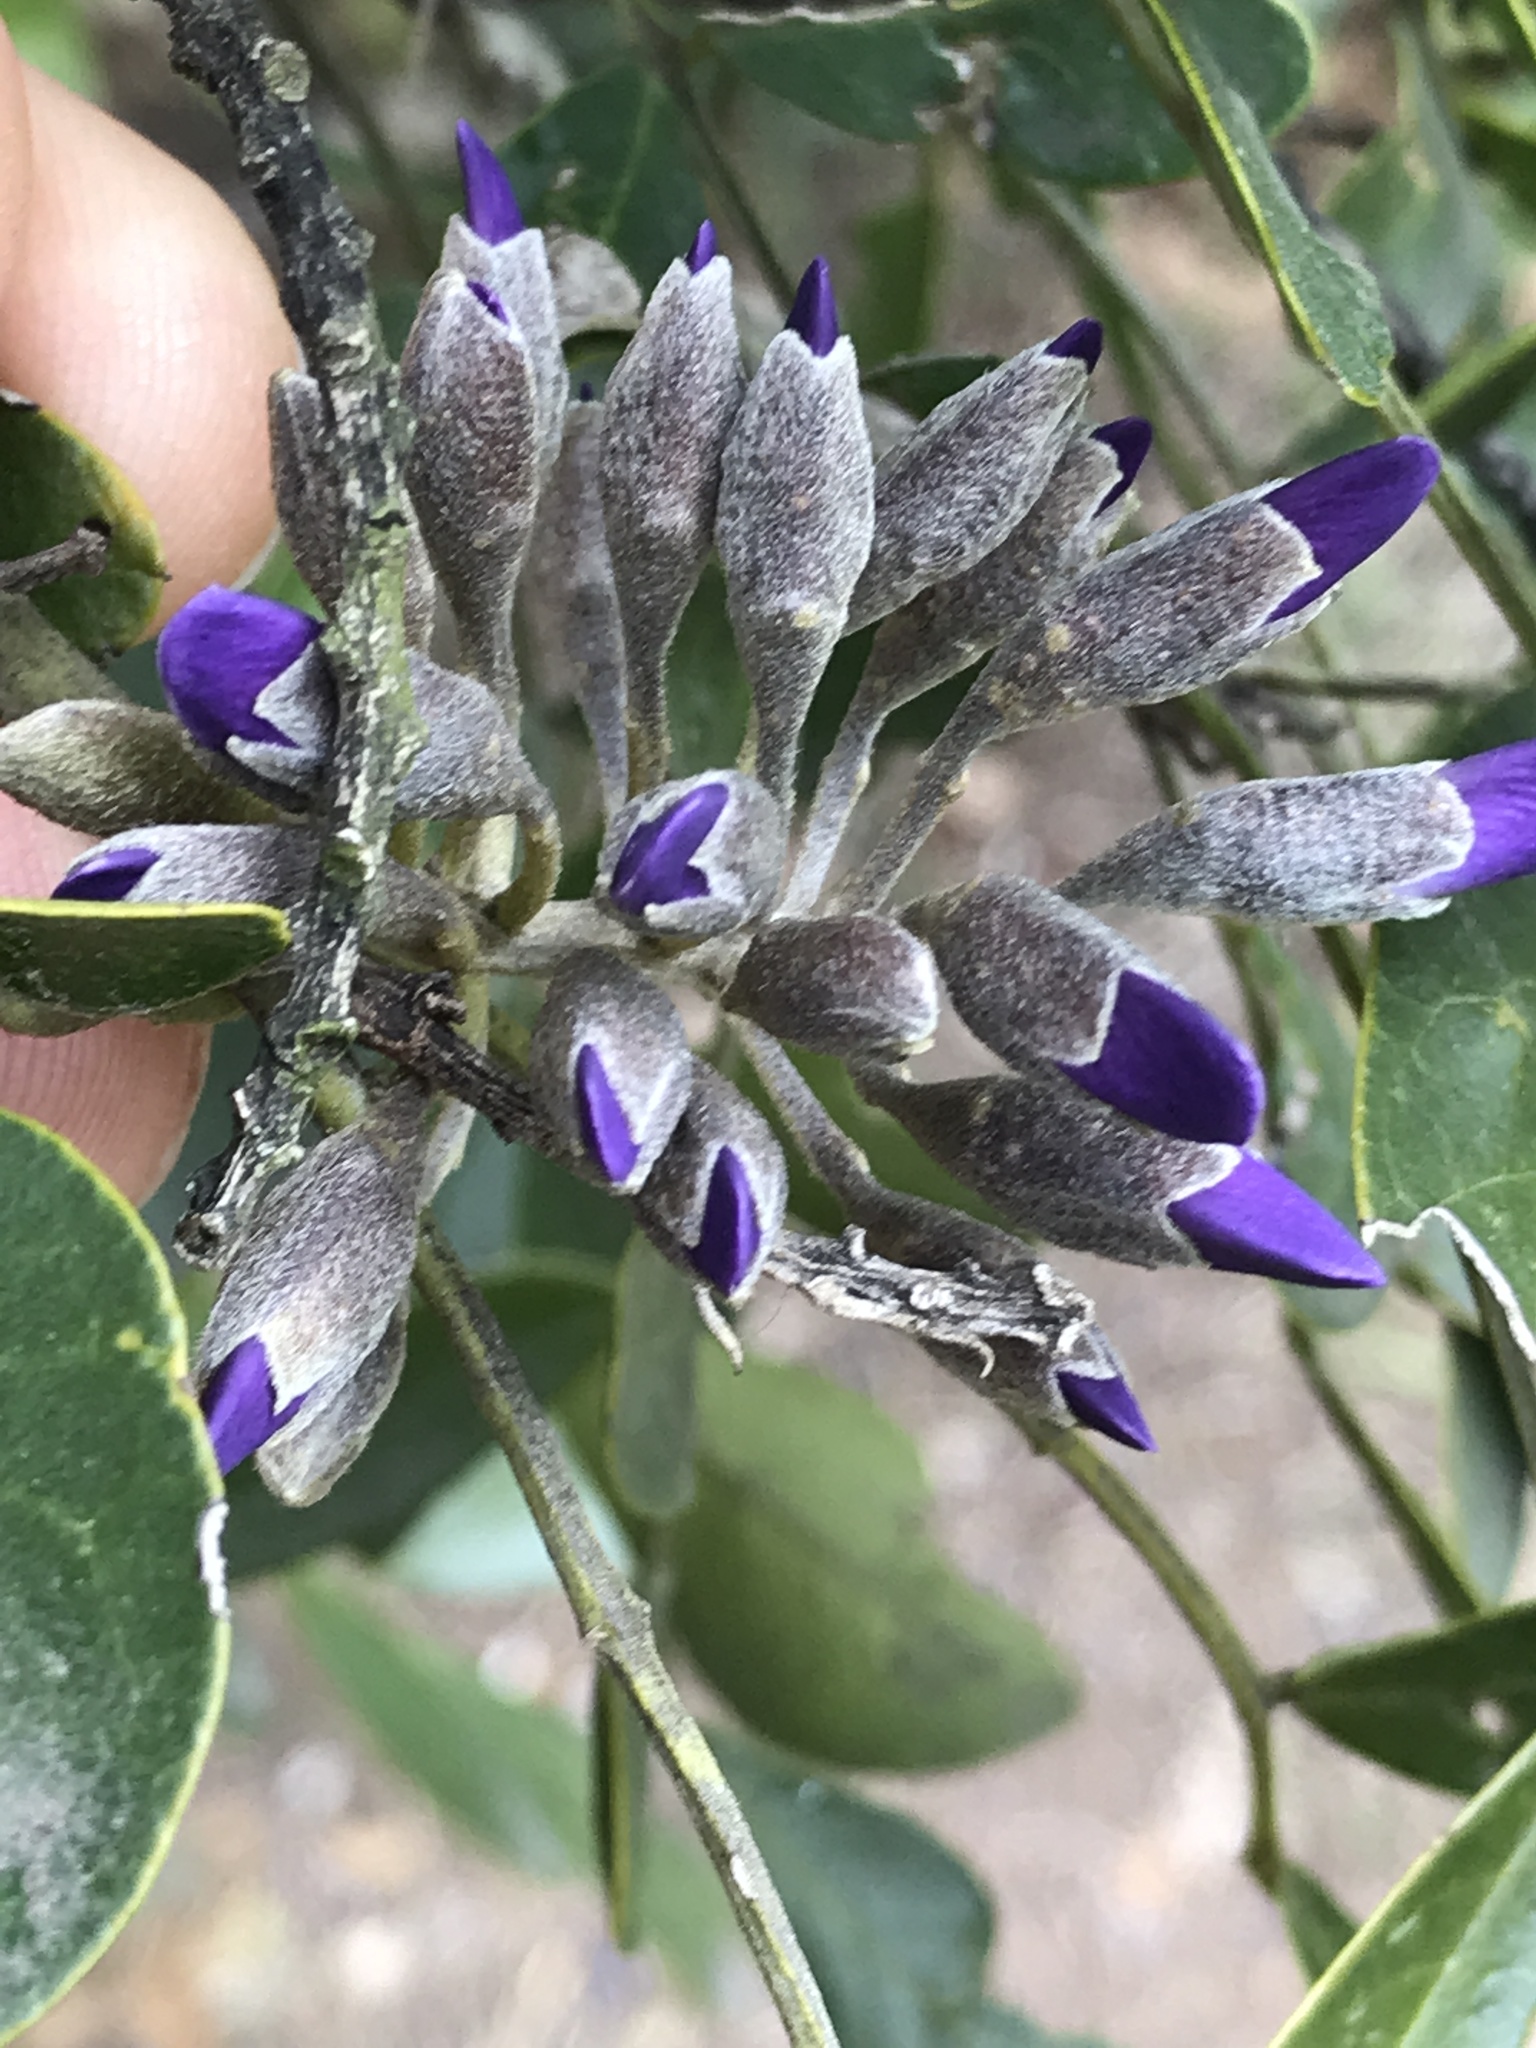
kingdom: Plantae
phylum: Tracheophyta
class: Magnoliopsida
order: Fabales
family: Fabaceae
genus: Dermatophyllum
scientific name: Dermatophyllum secundiflorum
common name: Texas-mountain-laurel
